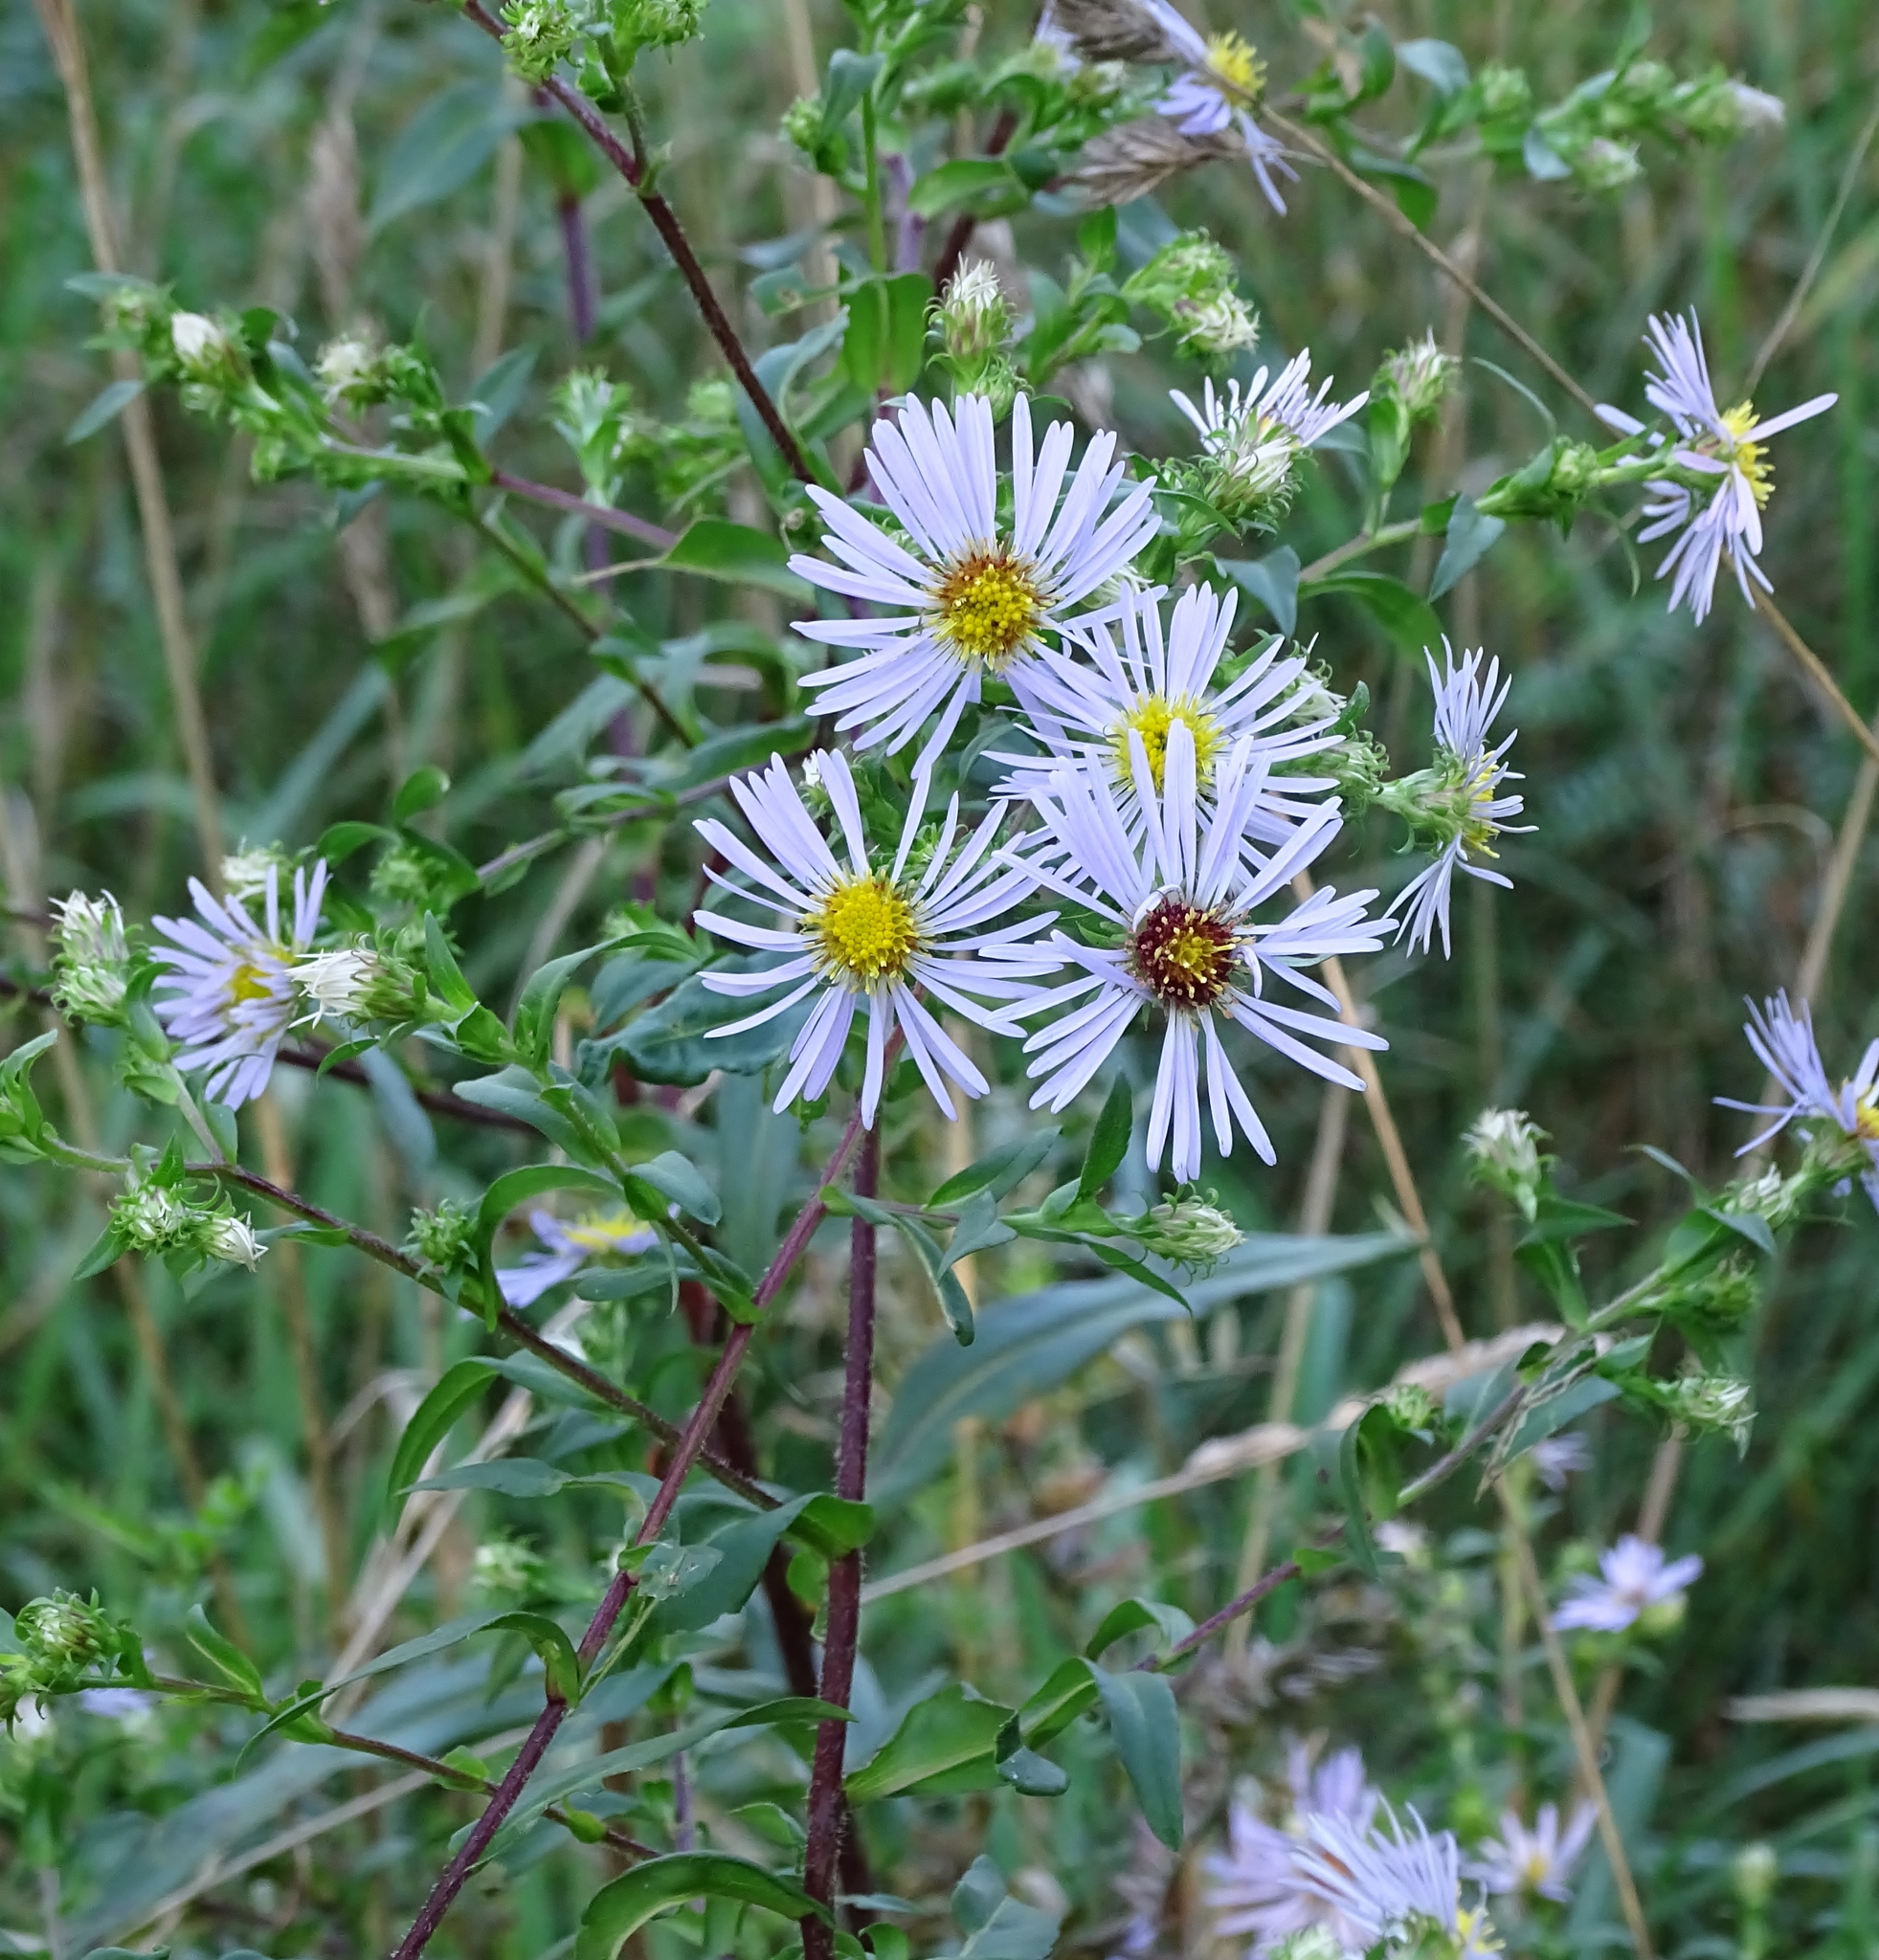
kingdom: Plantae
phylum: Tracheophyta
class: Magnoliopsida
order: Asterales
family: Asteraceae
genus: Symphyotrichum
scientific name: Symphyotrichum puniceum
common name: Bog aster
